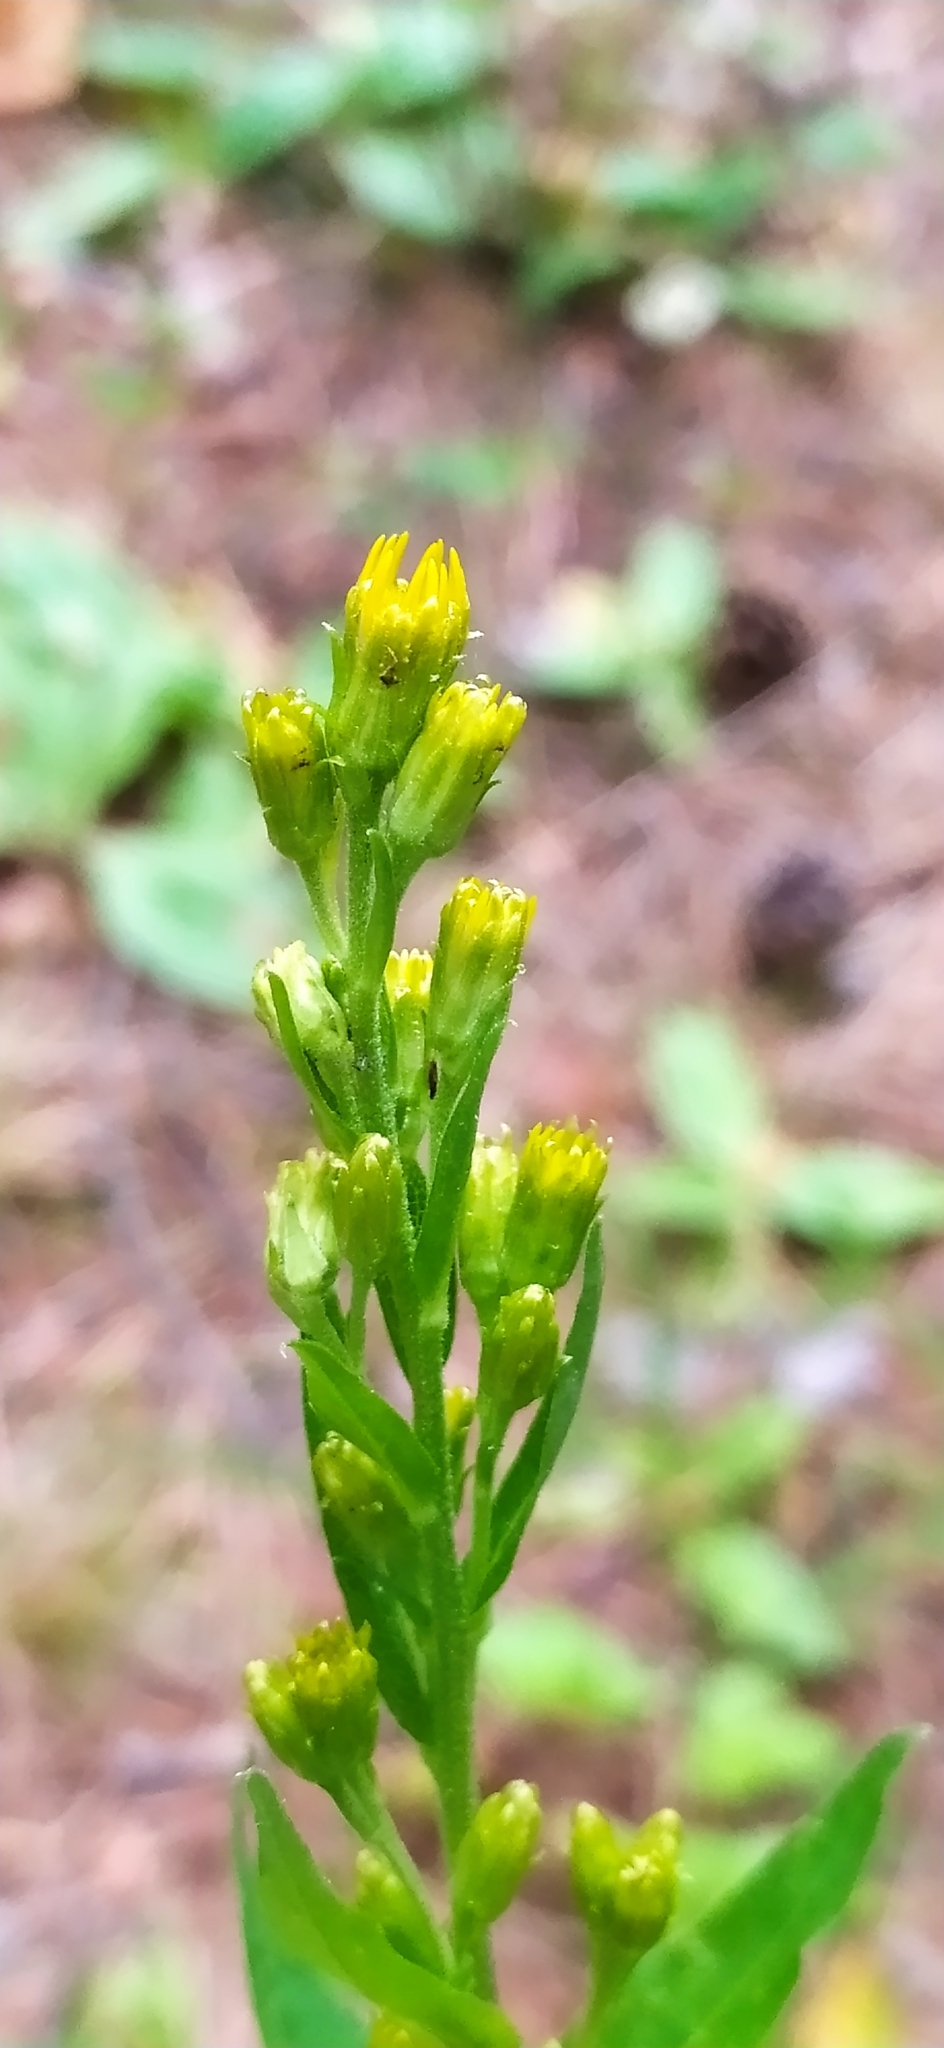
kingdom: Plantae
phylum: Tracheophyta
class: Magnoliopsida
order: Asterales
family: Asteraceae
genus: Solidago
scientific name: Solidago virgaurea
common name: Goldenrod
